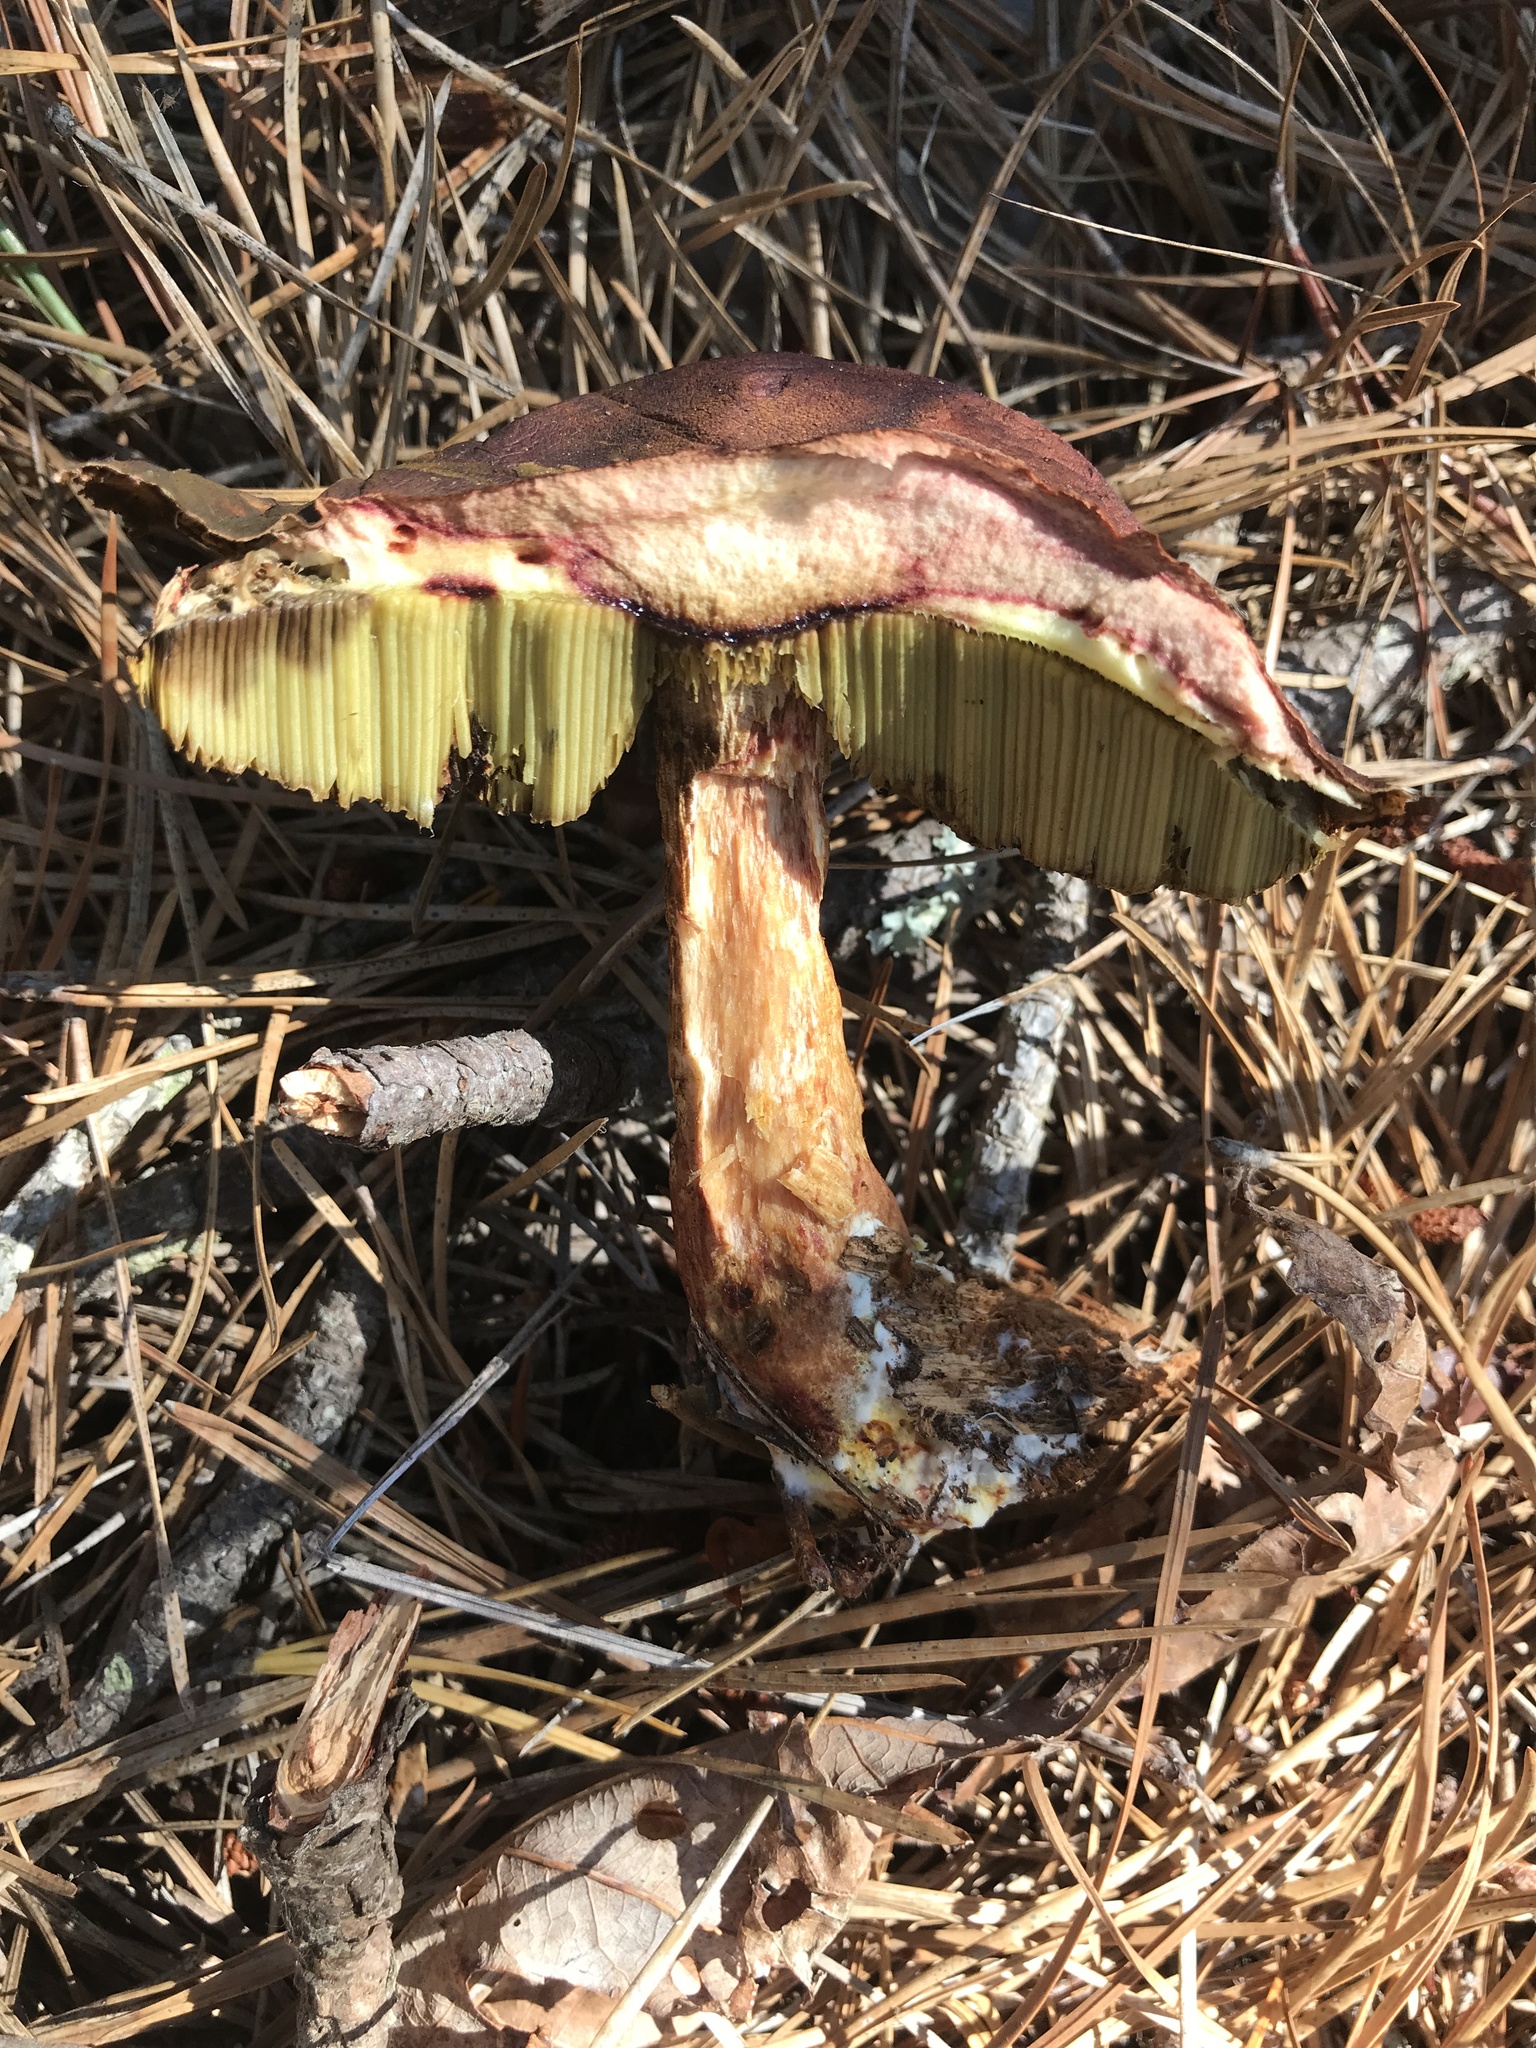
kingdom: Fungi
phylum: Basidiomycota
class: Agaricomycetes
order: Boletales
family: Boletaceae
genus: Aureoboletus
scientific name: Aureoboletus projectellus
